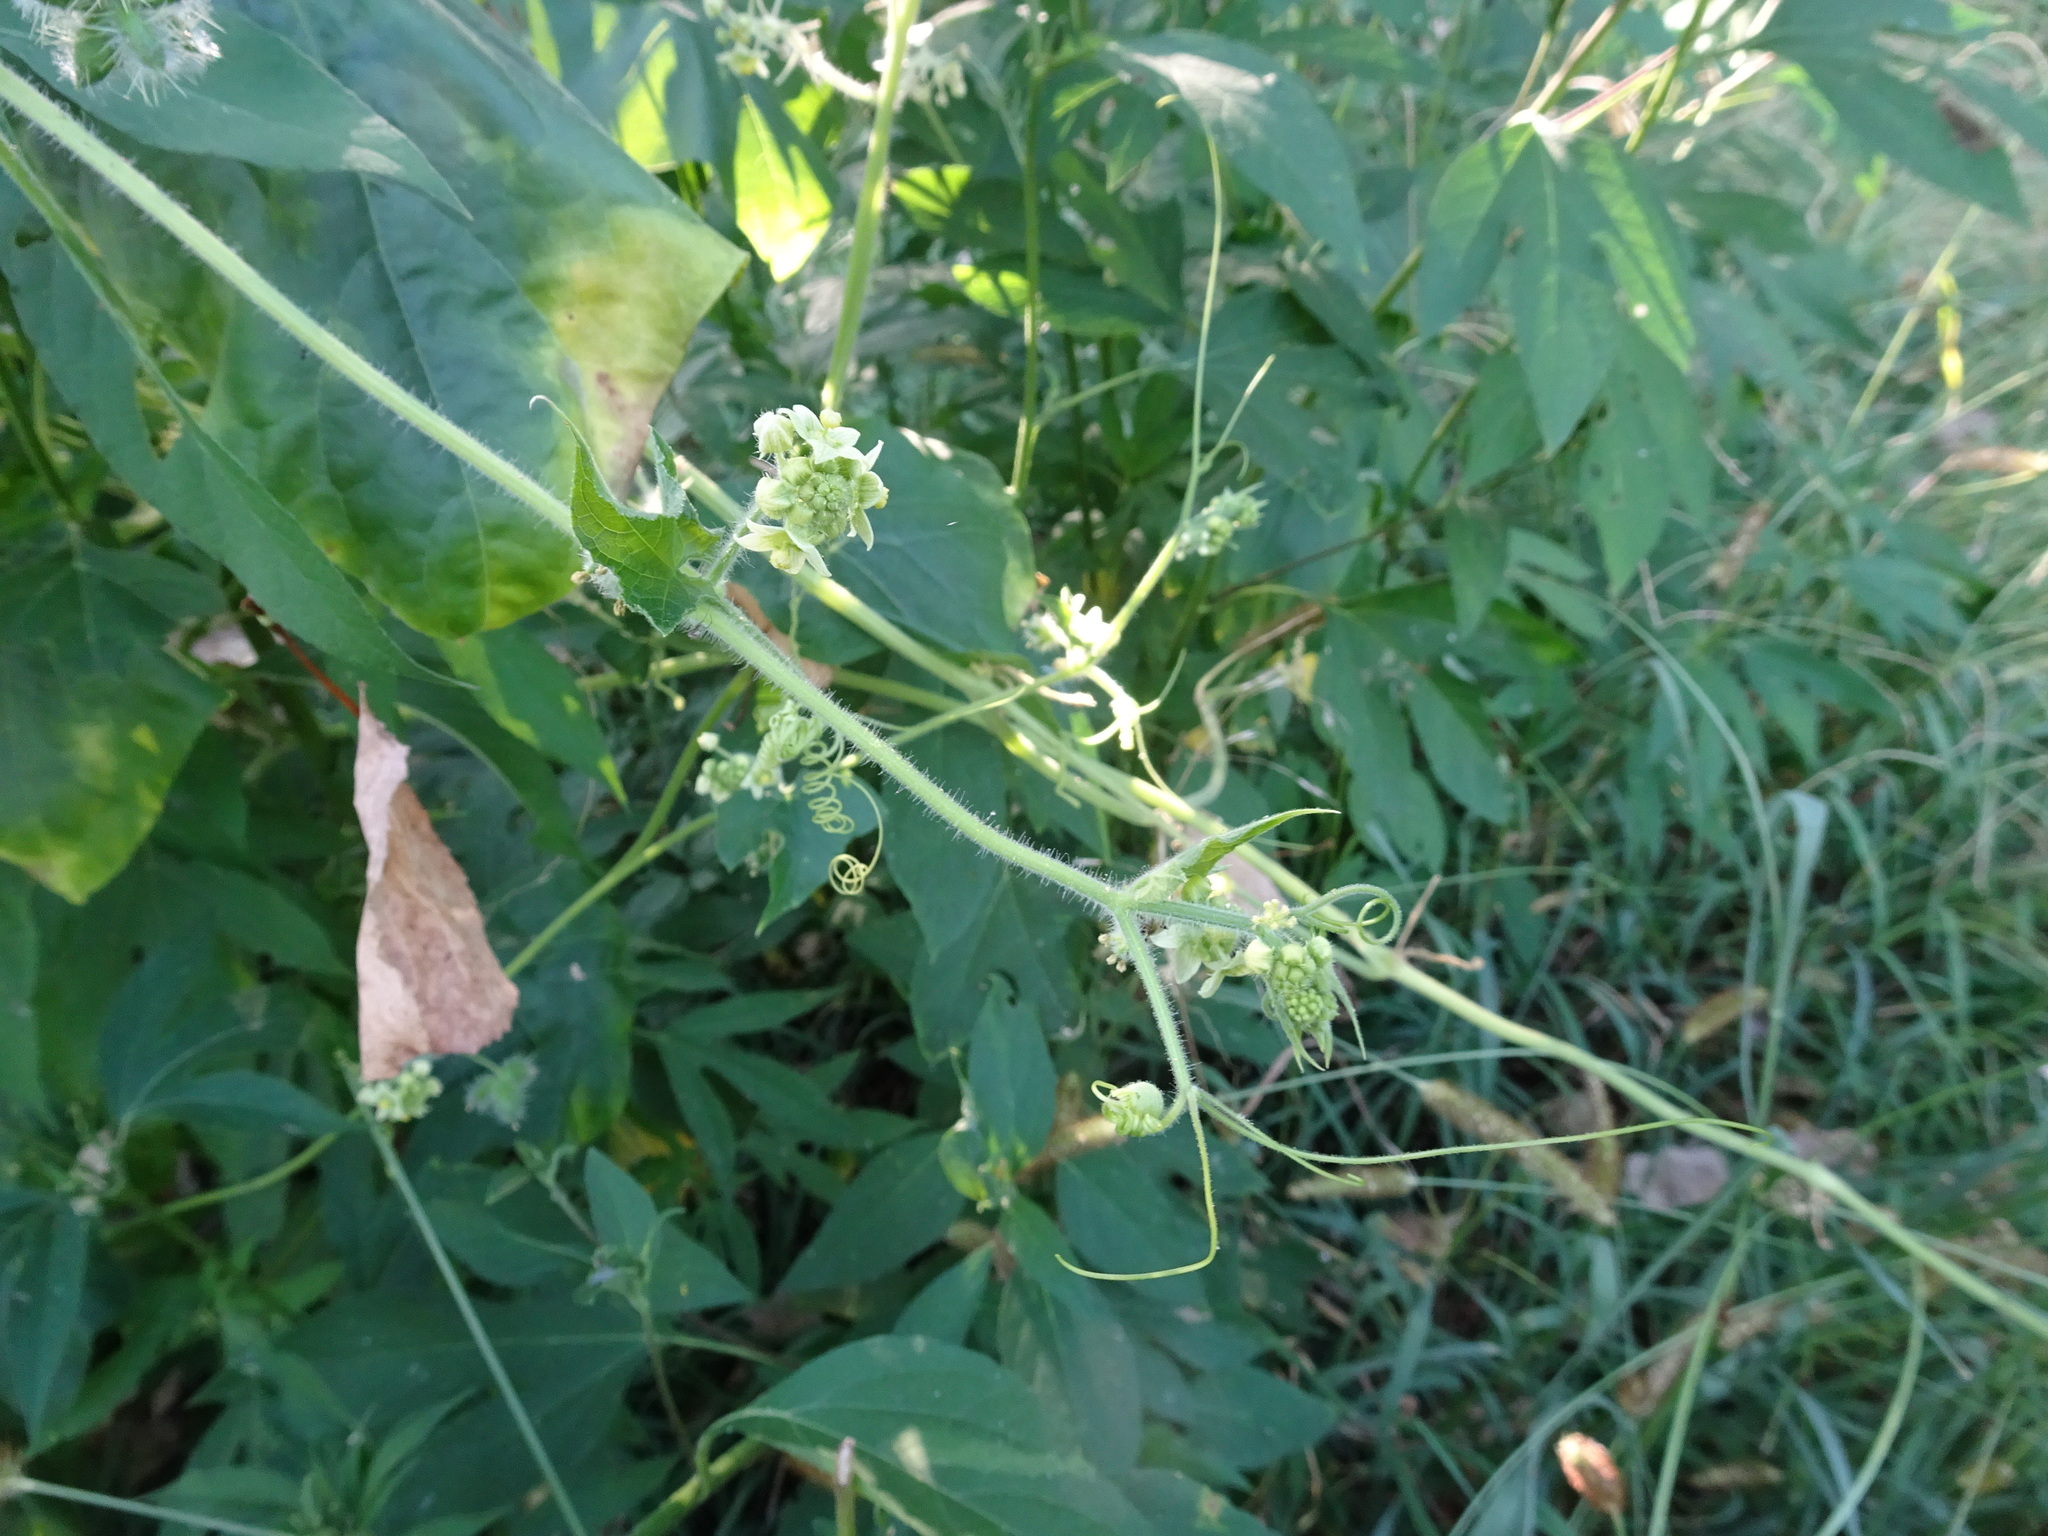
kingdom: Plantae
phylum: Tracheophyta
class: Magnoliopsida
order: Cucurbitales
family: Cucurbitaceae
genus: Sicyos
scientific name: Sicyos angulatus
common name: Angled burr cucumber
